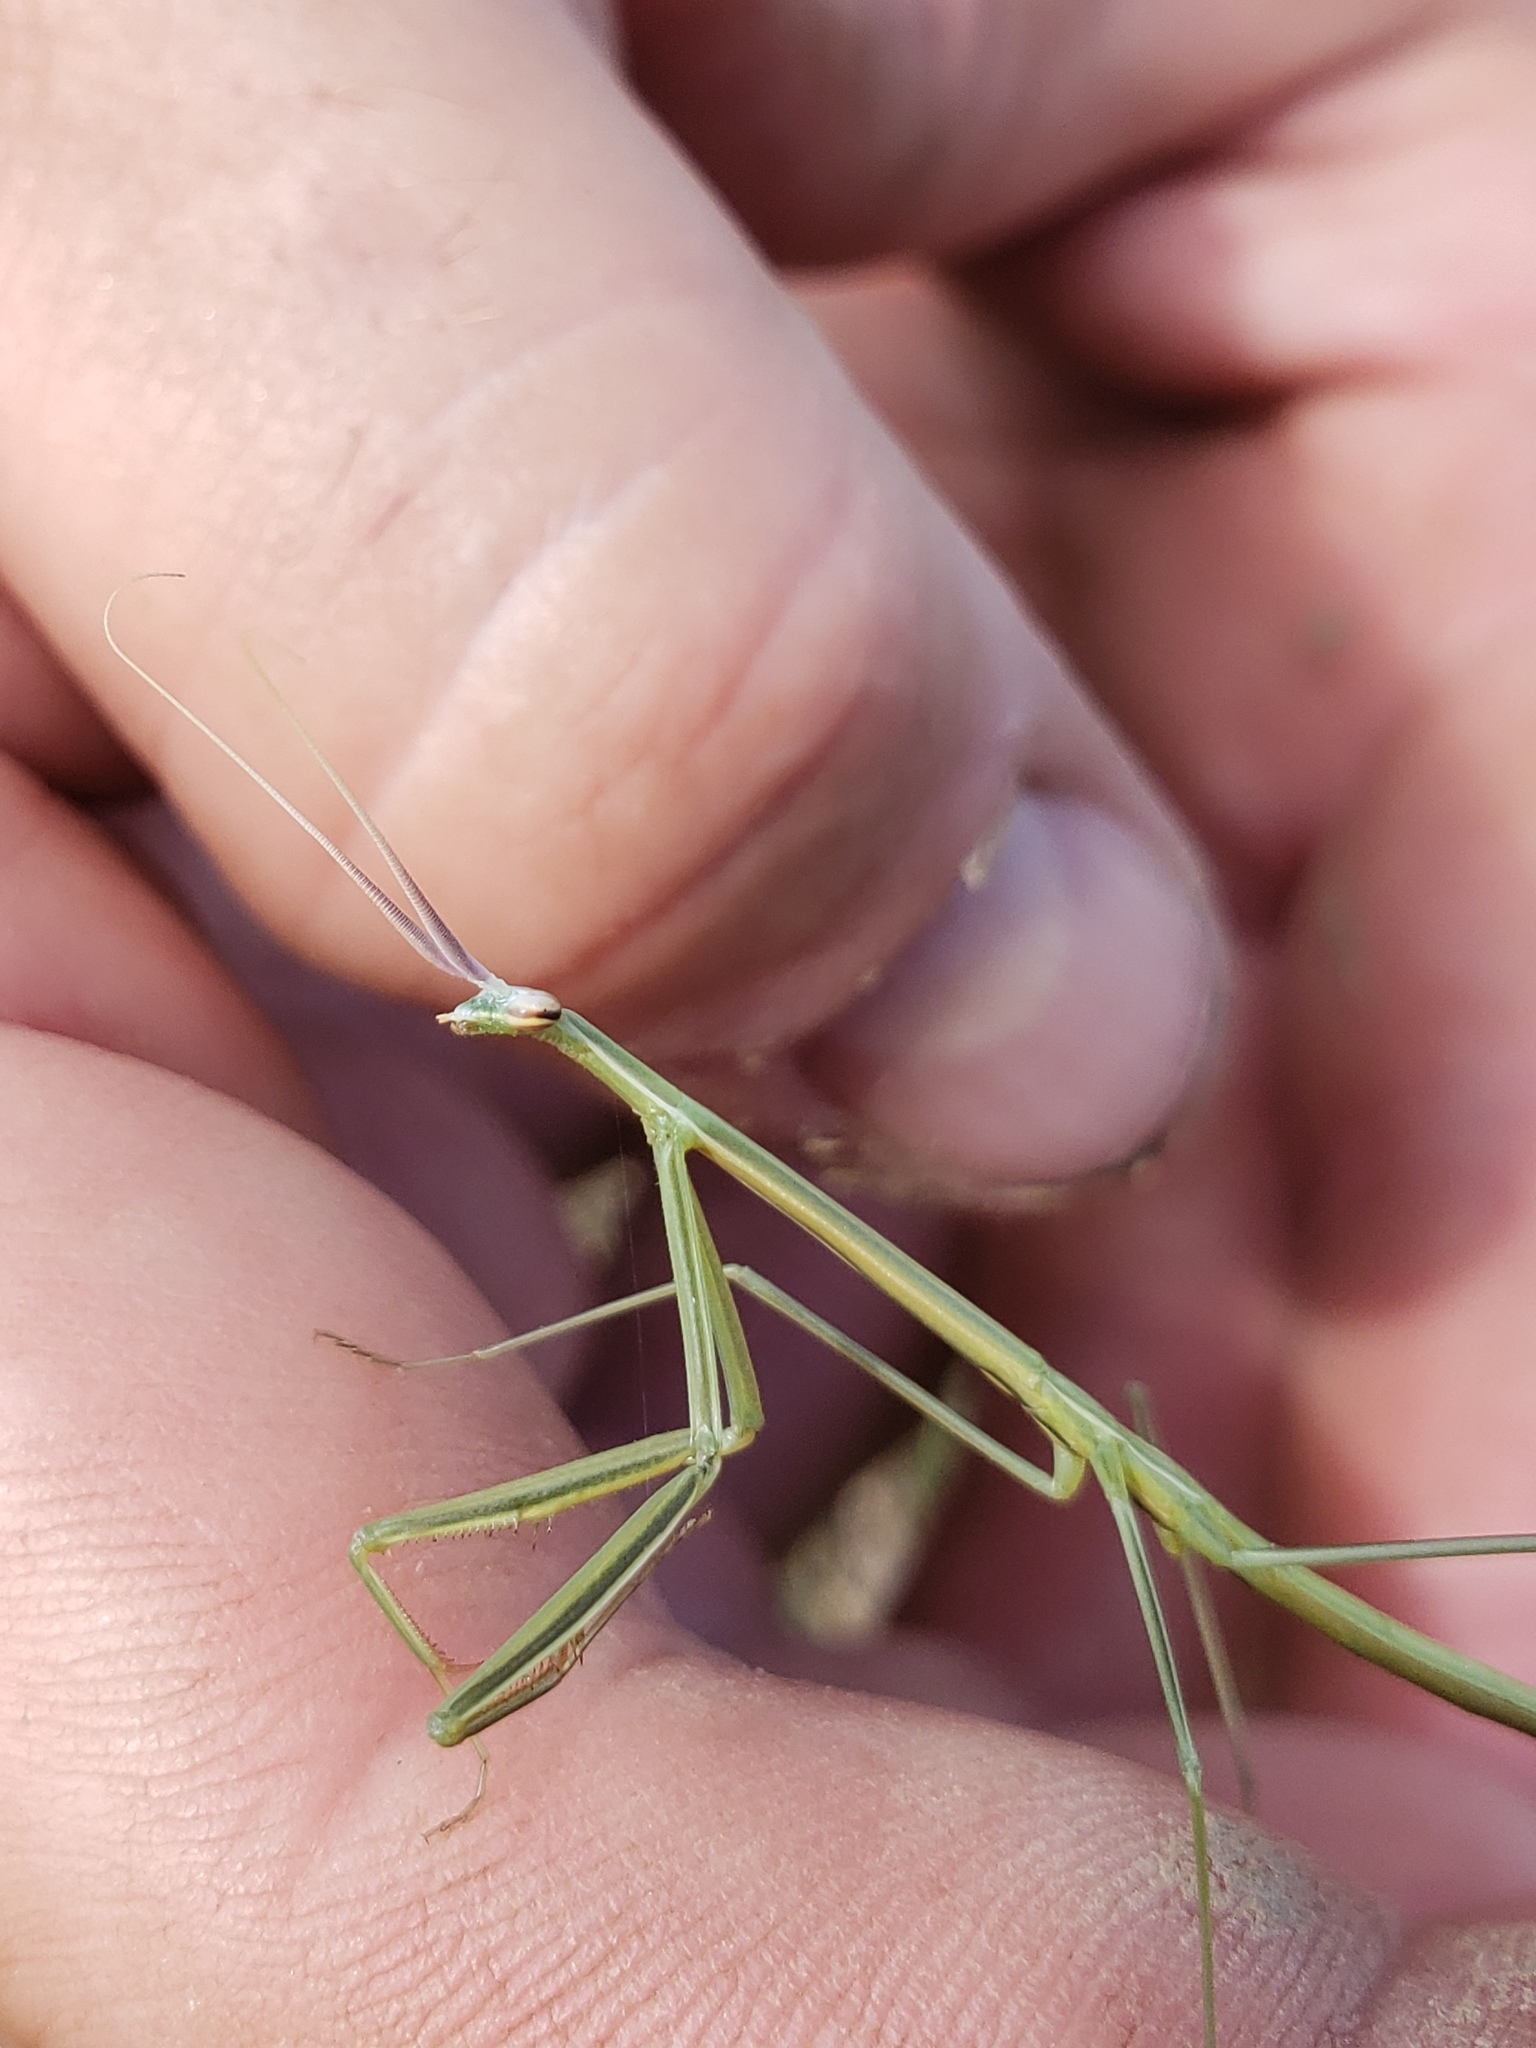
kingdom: Animalia
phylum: Arthropoda
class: Insecta
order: Mantodea
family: Coptopterygidae
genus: Brunneria
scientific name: Brunneria borealis
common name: Mantis
